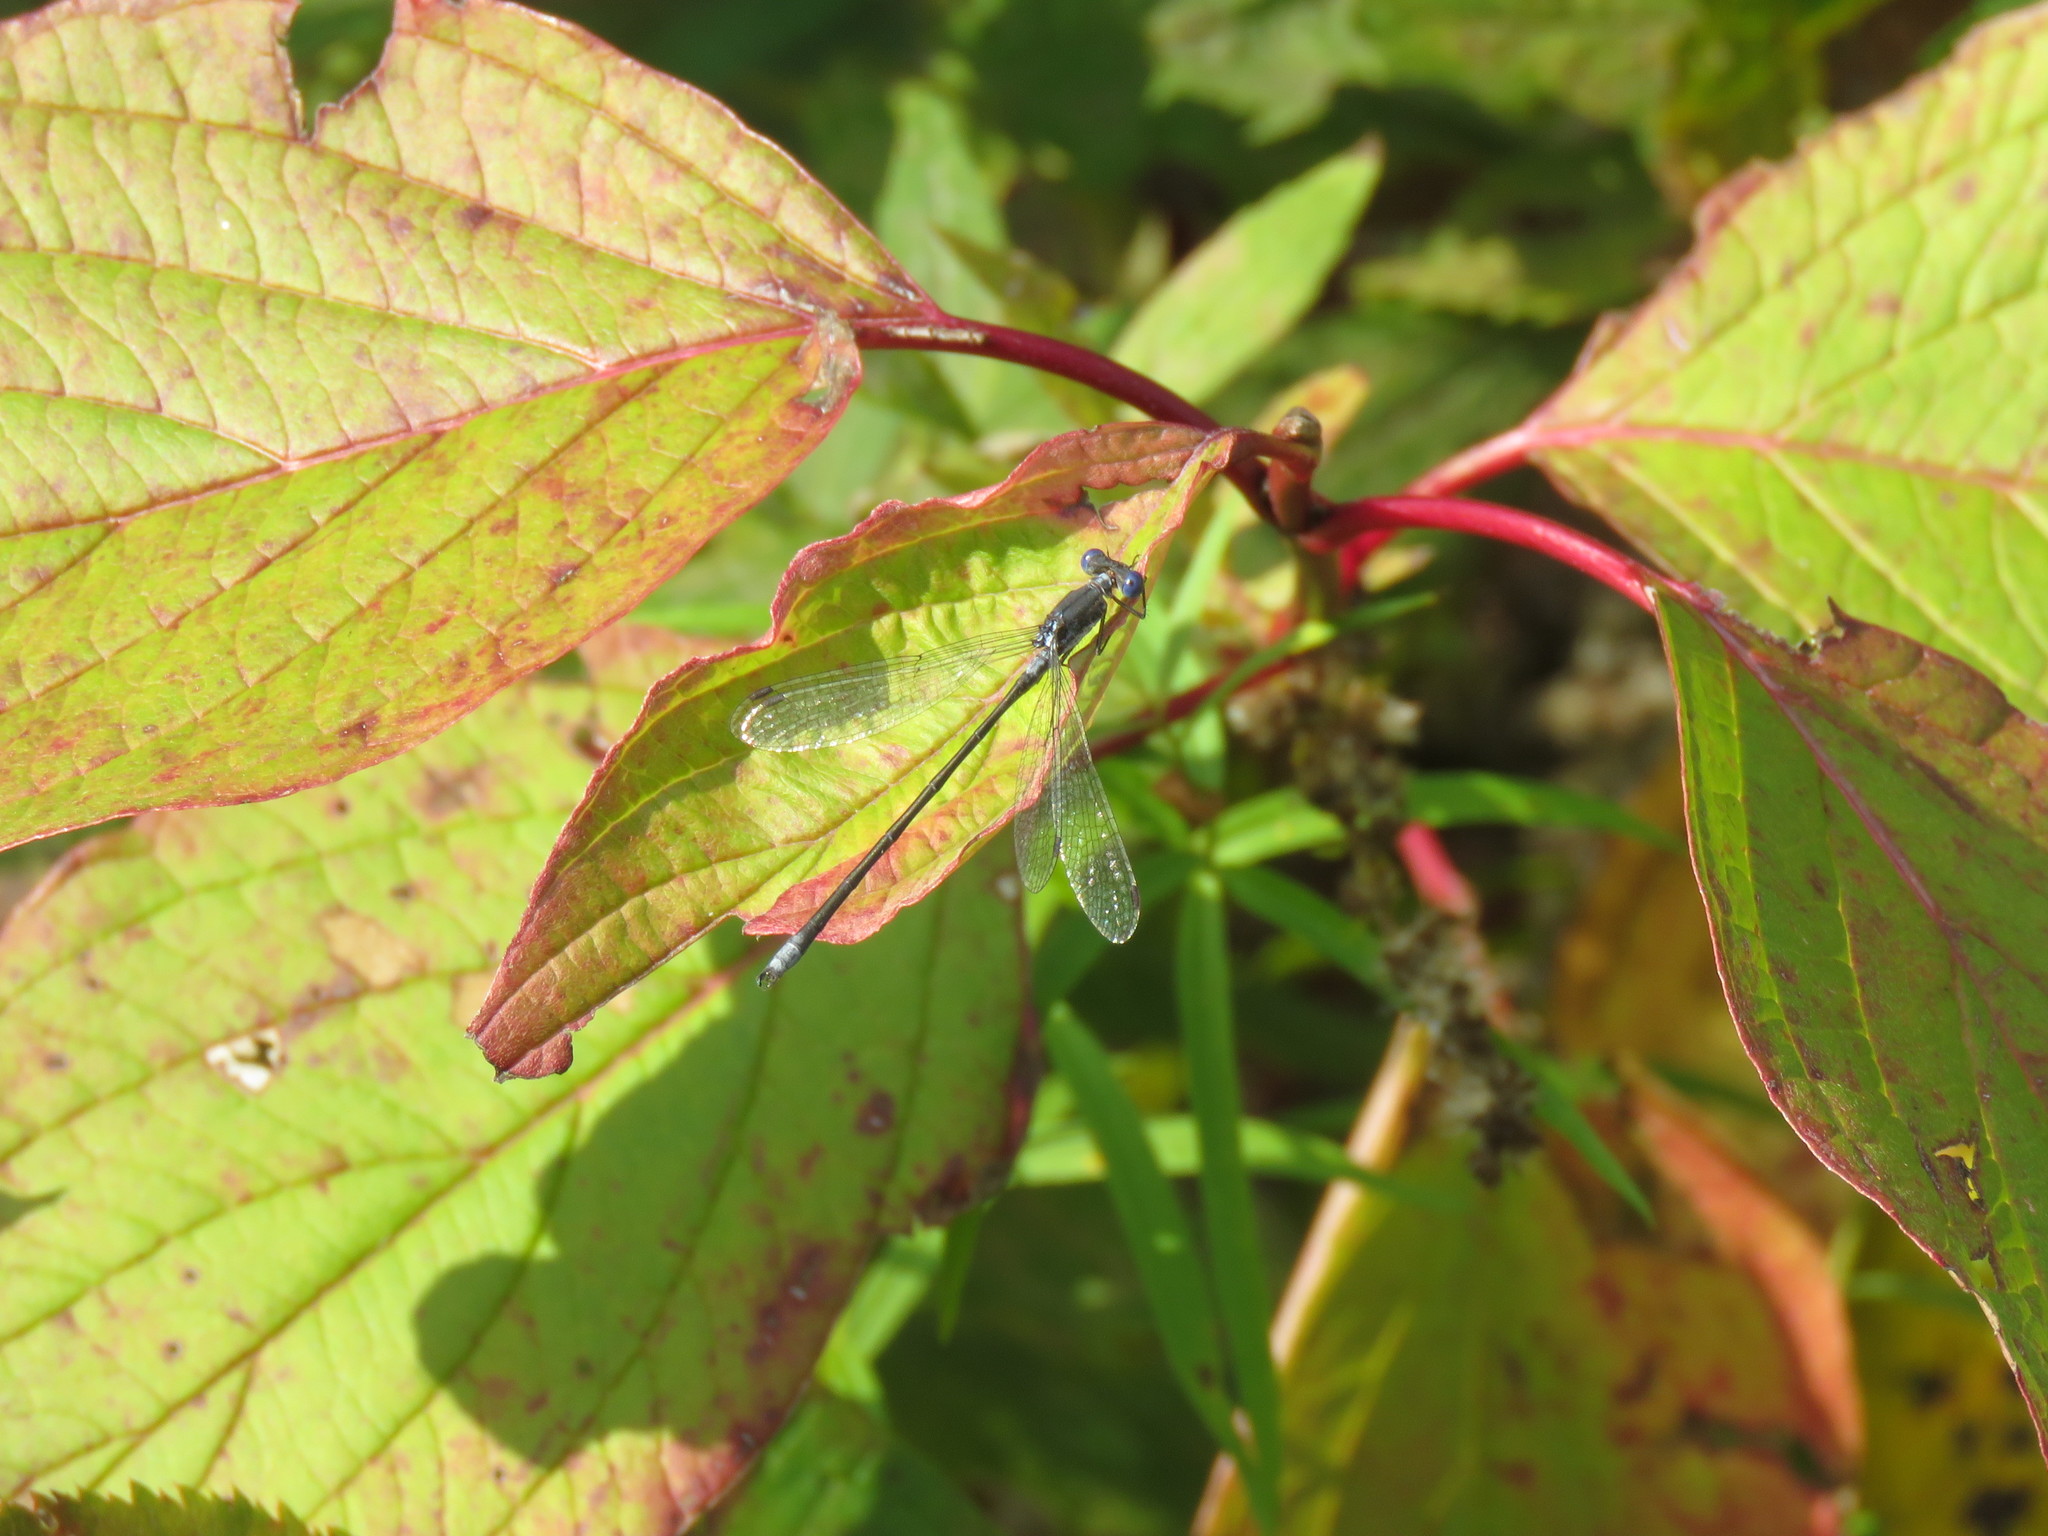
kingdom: Animalia
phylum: Arthropoda
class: Insecta
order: Odonata
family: Lestidae
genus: Lestes
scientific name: Lestes congener
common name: Spotted spreadwing
